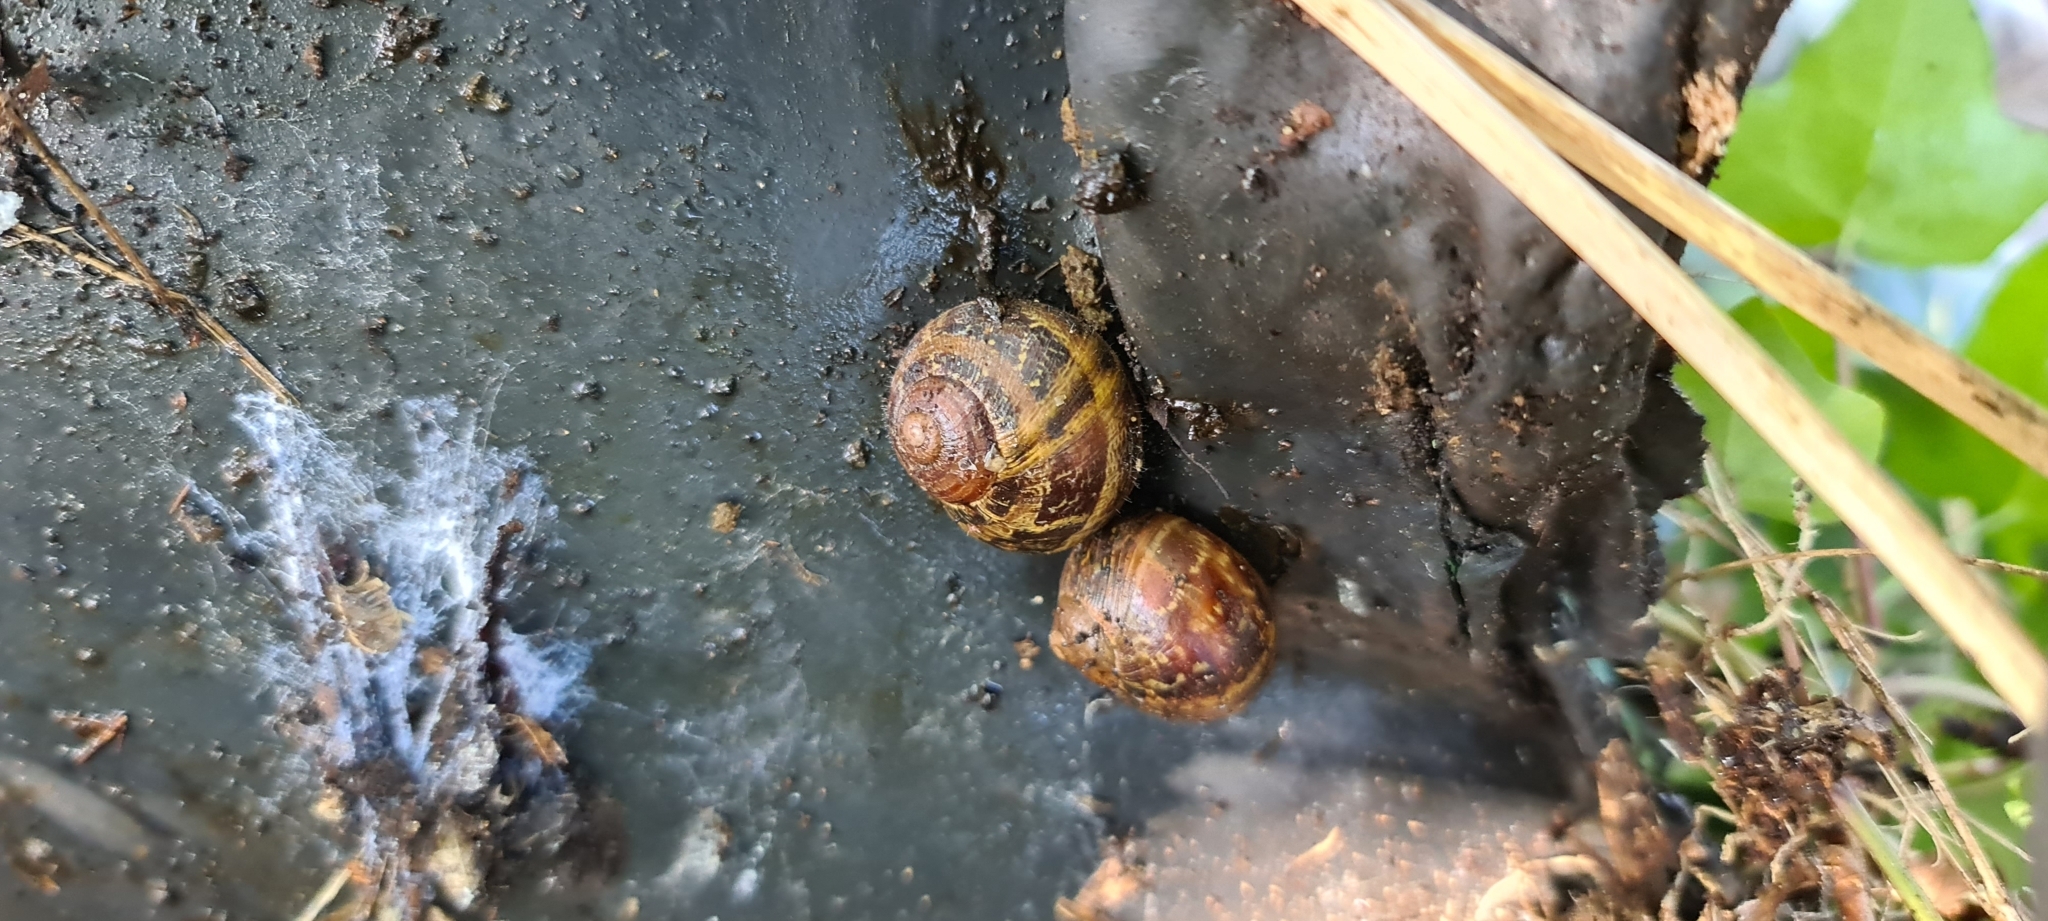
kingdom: Animalia
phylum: Mollusca
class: Gastropoda
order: Stylommatophora
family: Helicidae
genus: Cornu
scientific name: Cornu aspersum
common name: Brown garden snail
